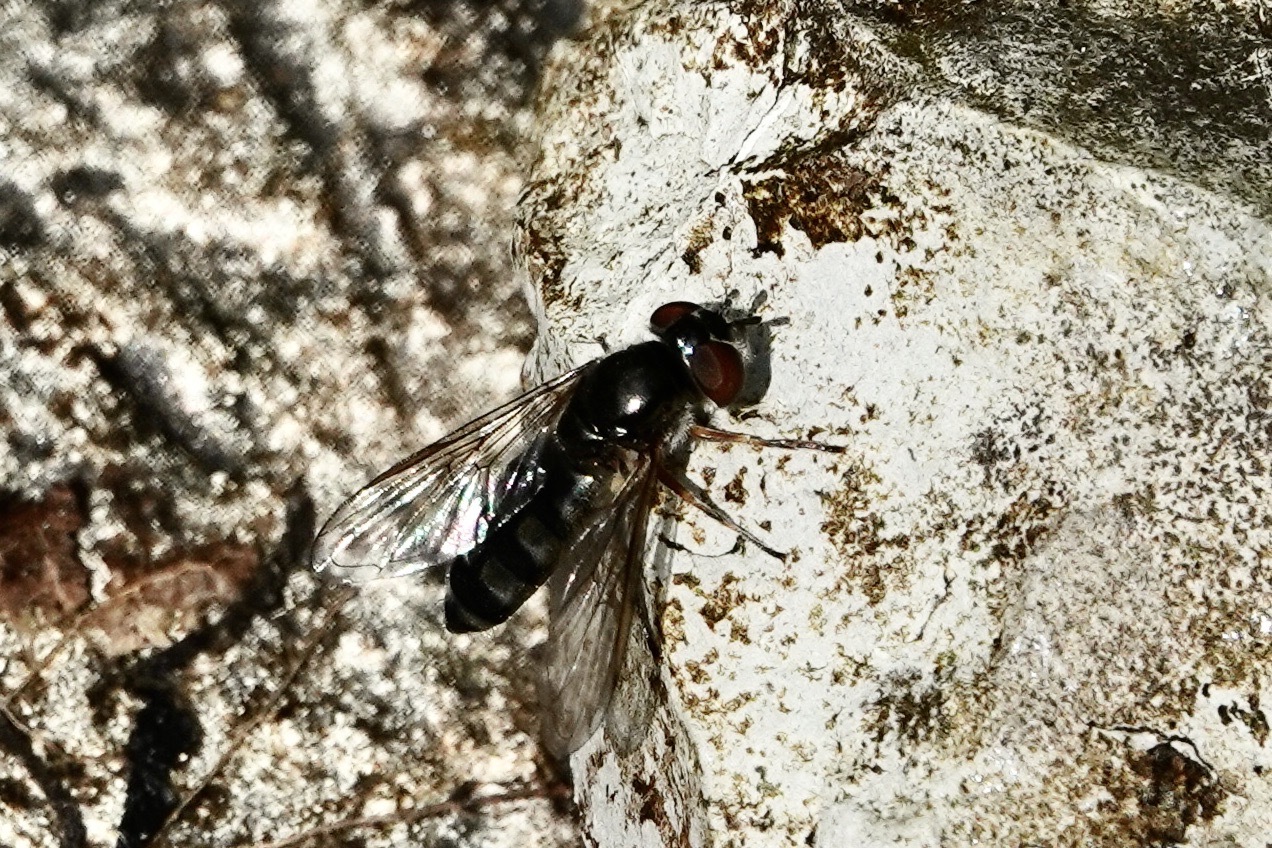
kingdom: Animalia
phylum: Arthropoda
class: Insecta
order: Diptera
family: Syrphidae
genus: Platycheirus
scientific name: Platycheirus albimanus
